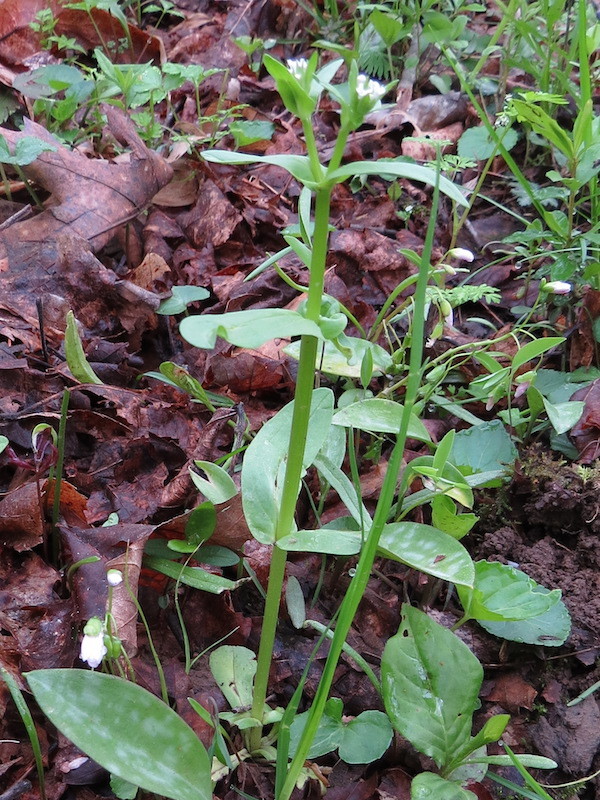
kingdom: Plantae
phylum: Tracheophyta
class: Magnoliopsida
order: Dipsacales
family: Caprifoliaceae
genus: Valerianella
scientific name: Valerianella locusta
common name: Common cornsalad
